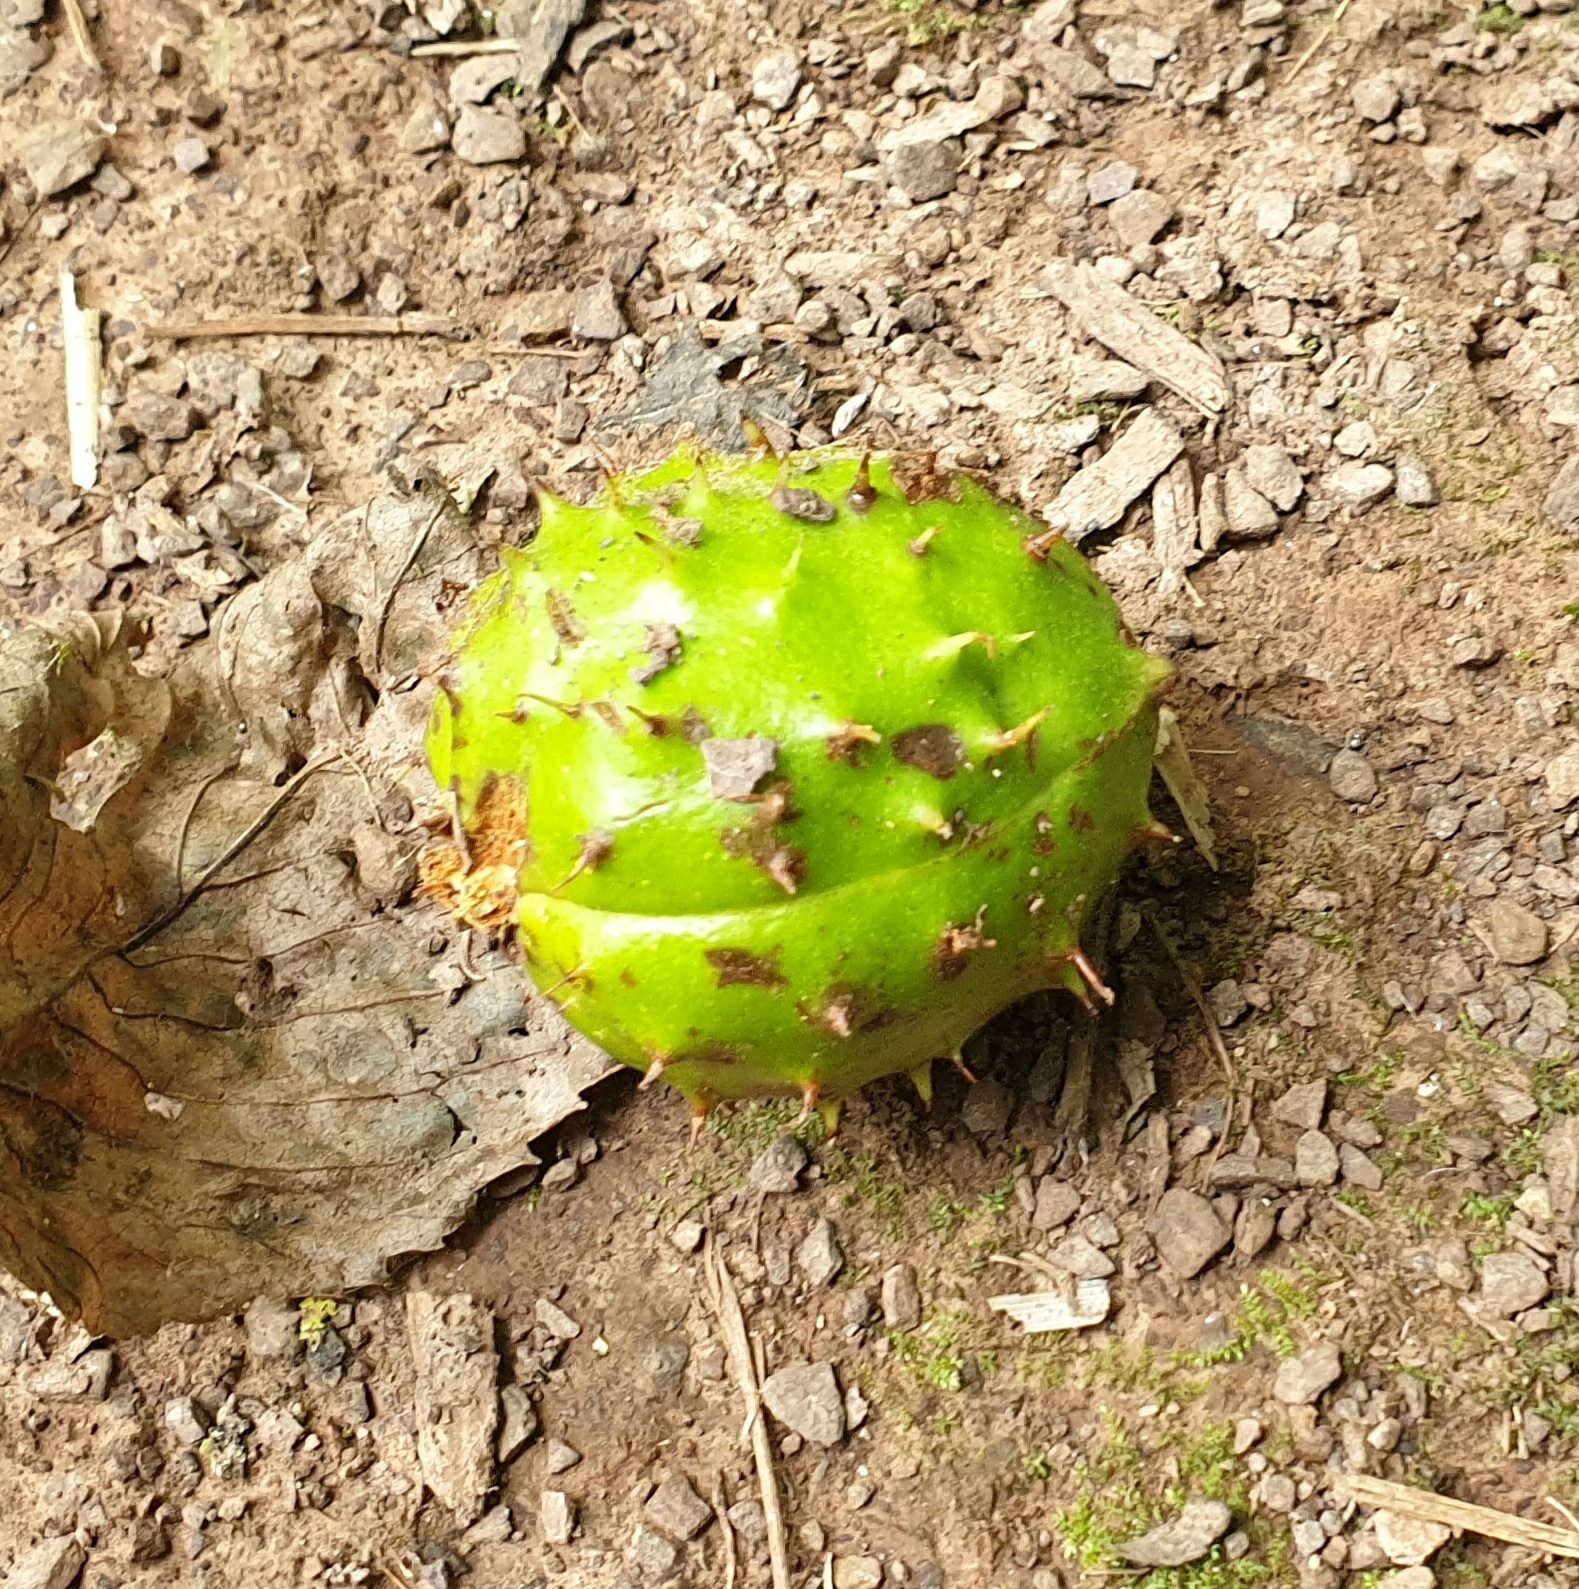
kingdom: Plantae
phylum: Tracheophyta
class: Magnoliopsida
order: Sapindales
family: Sapindaceae
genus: Aesculus
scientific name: Aesculus hippocastanum
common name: Horse-chestnut
